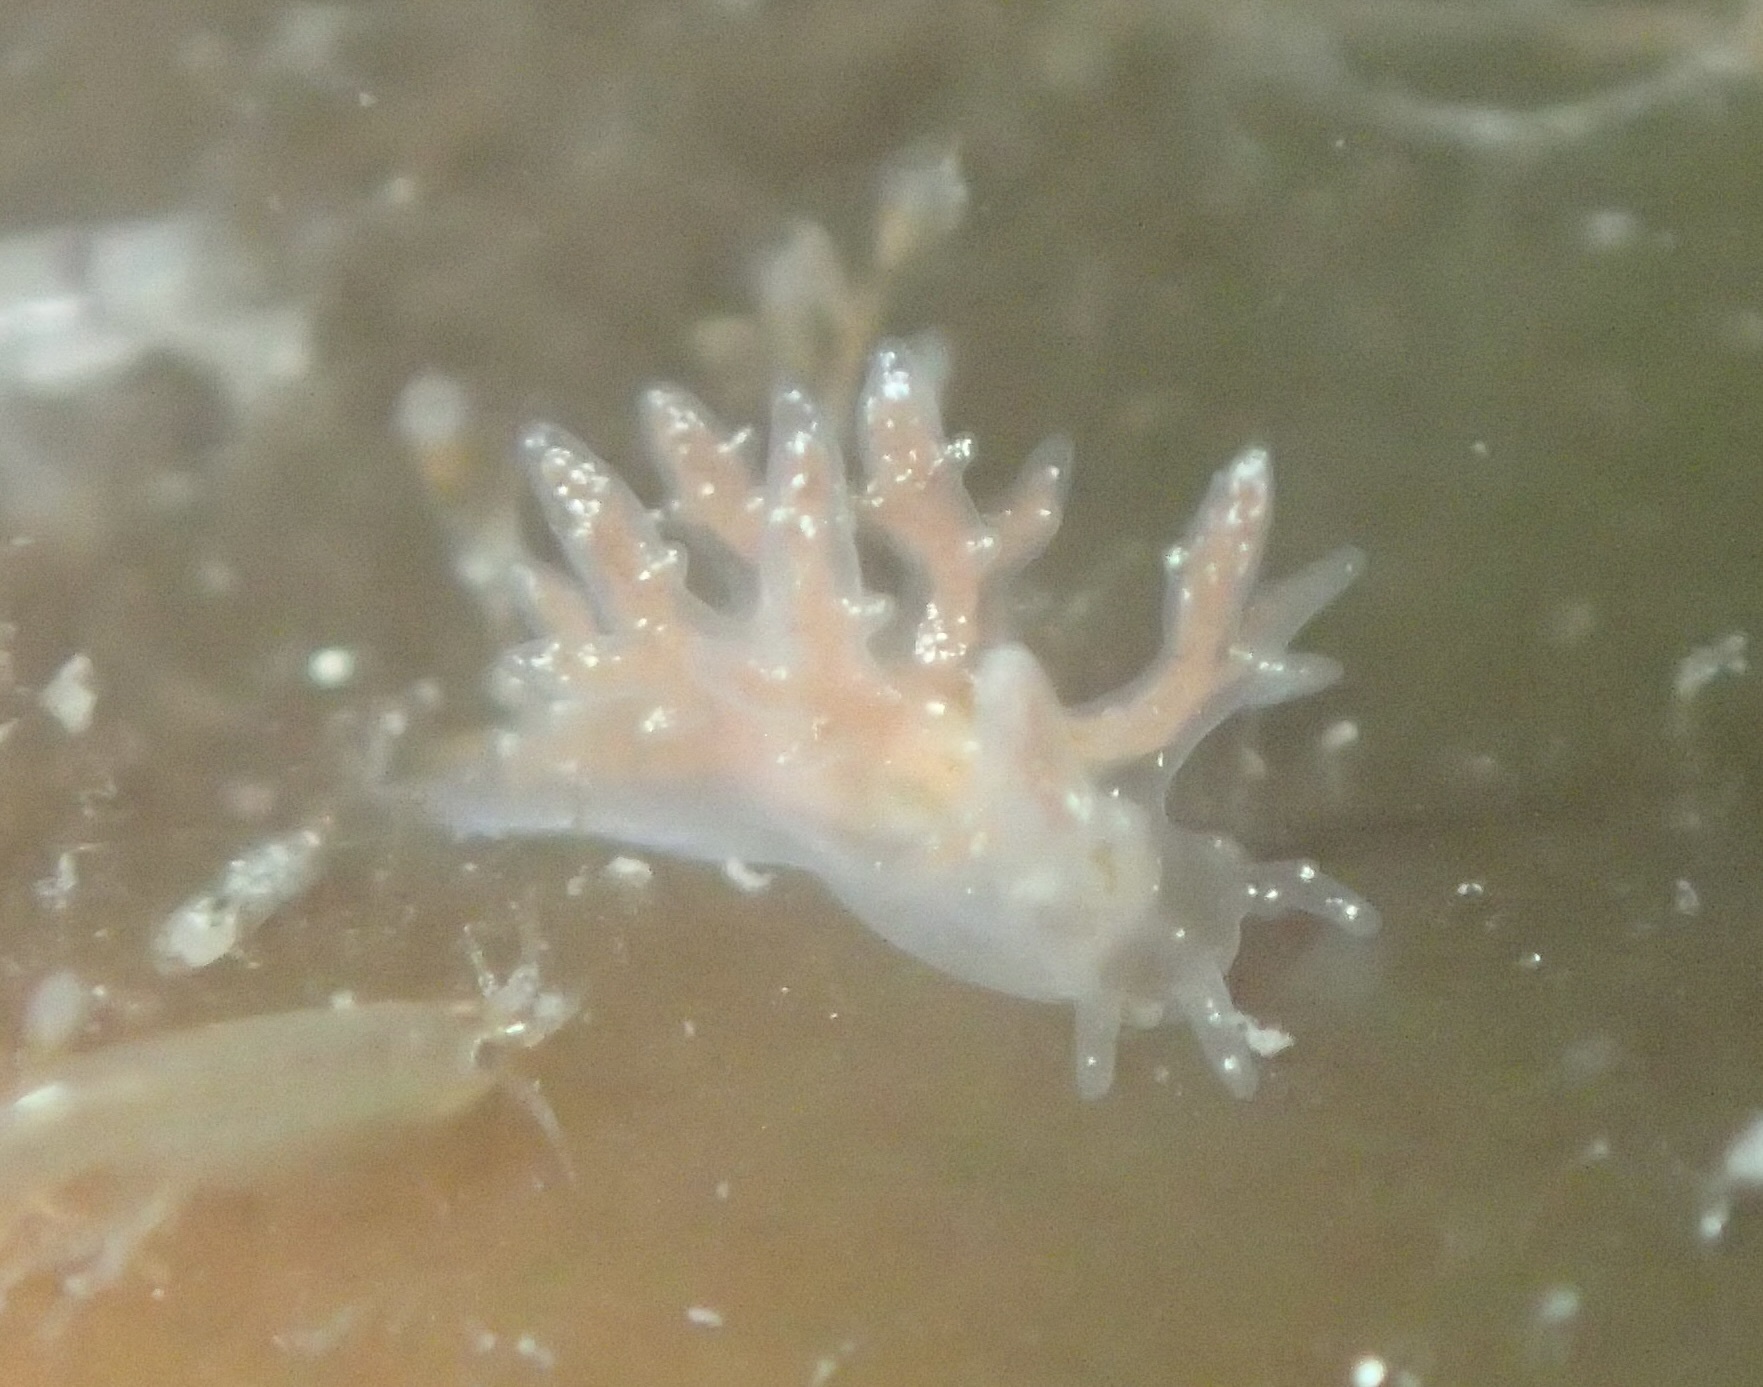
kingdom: Animalia
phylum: Mollusca
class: Gastropoda
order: Nudibranchia
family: Dendronotidae
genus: Dendronotus
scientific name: Dendronotus venustus
